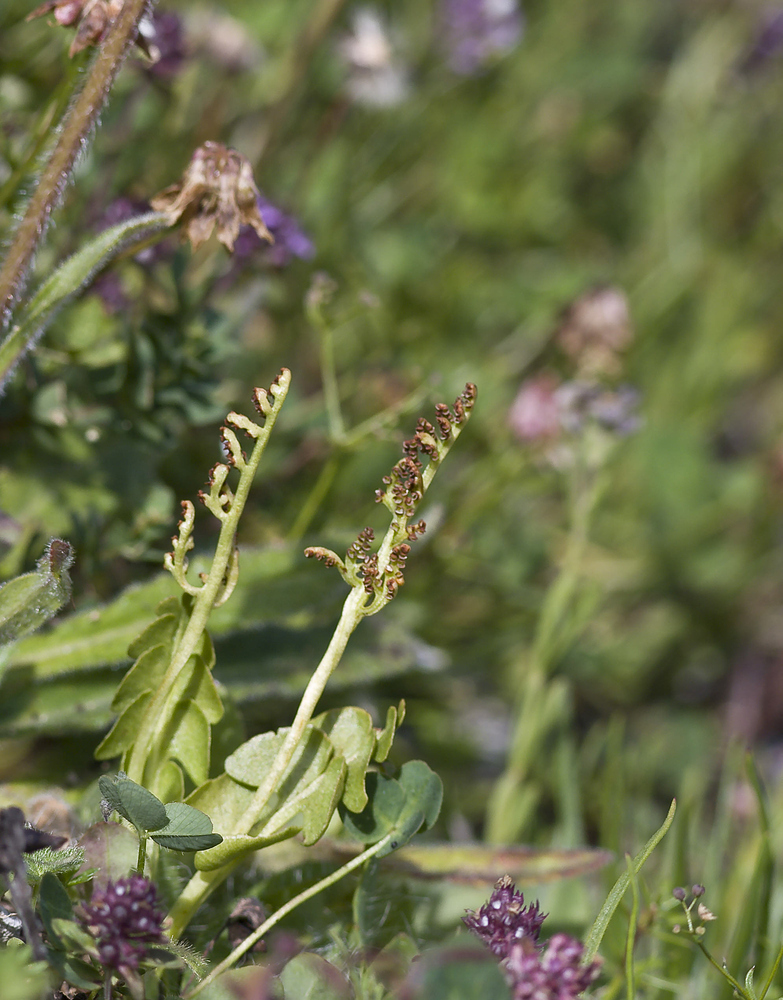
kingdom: Plantae
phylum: Tracheophyta
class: Polypodiopsida
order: Ophioglossales
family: Ophioglossaceae
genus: Botrychium
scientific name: Botrychium lunaria
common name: Moonwort
